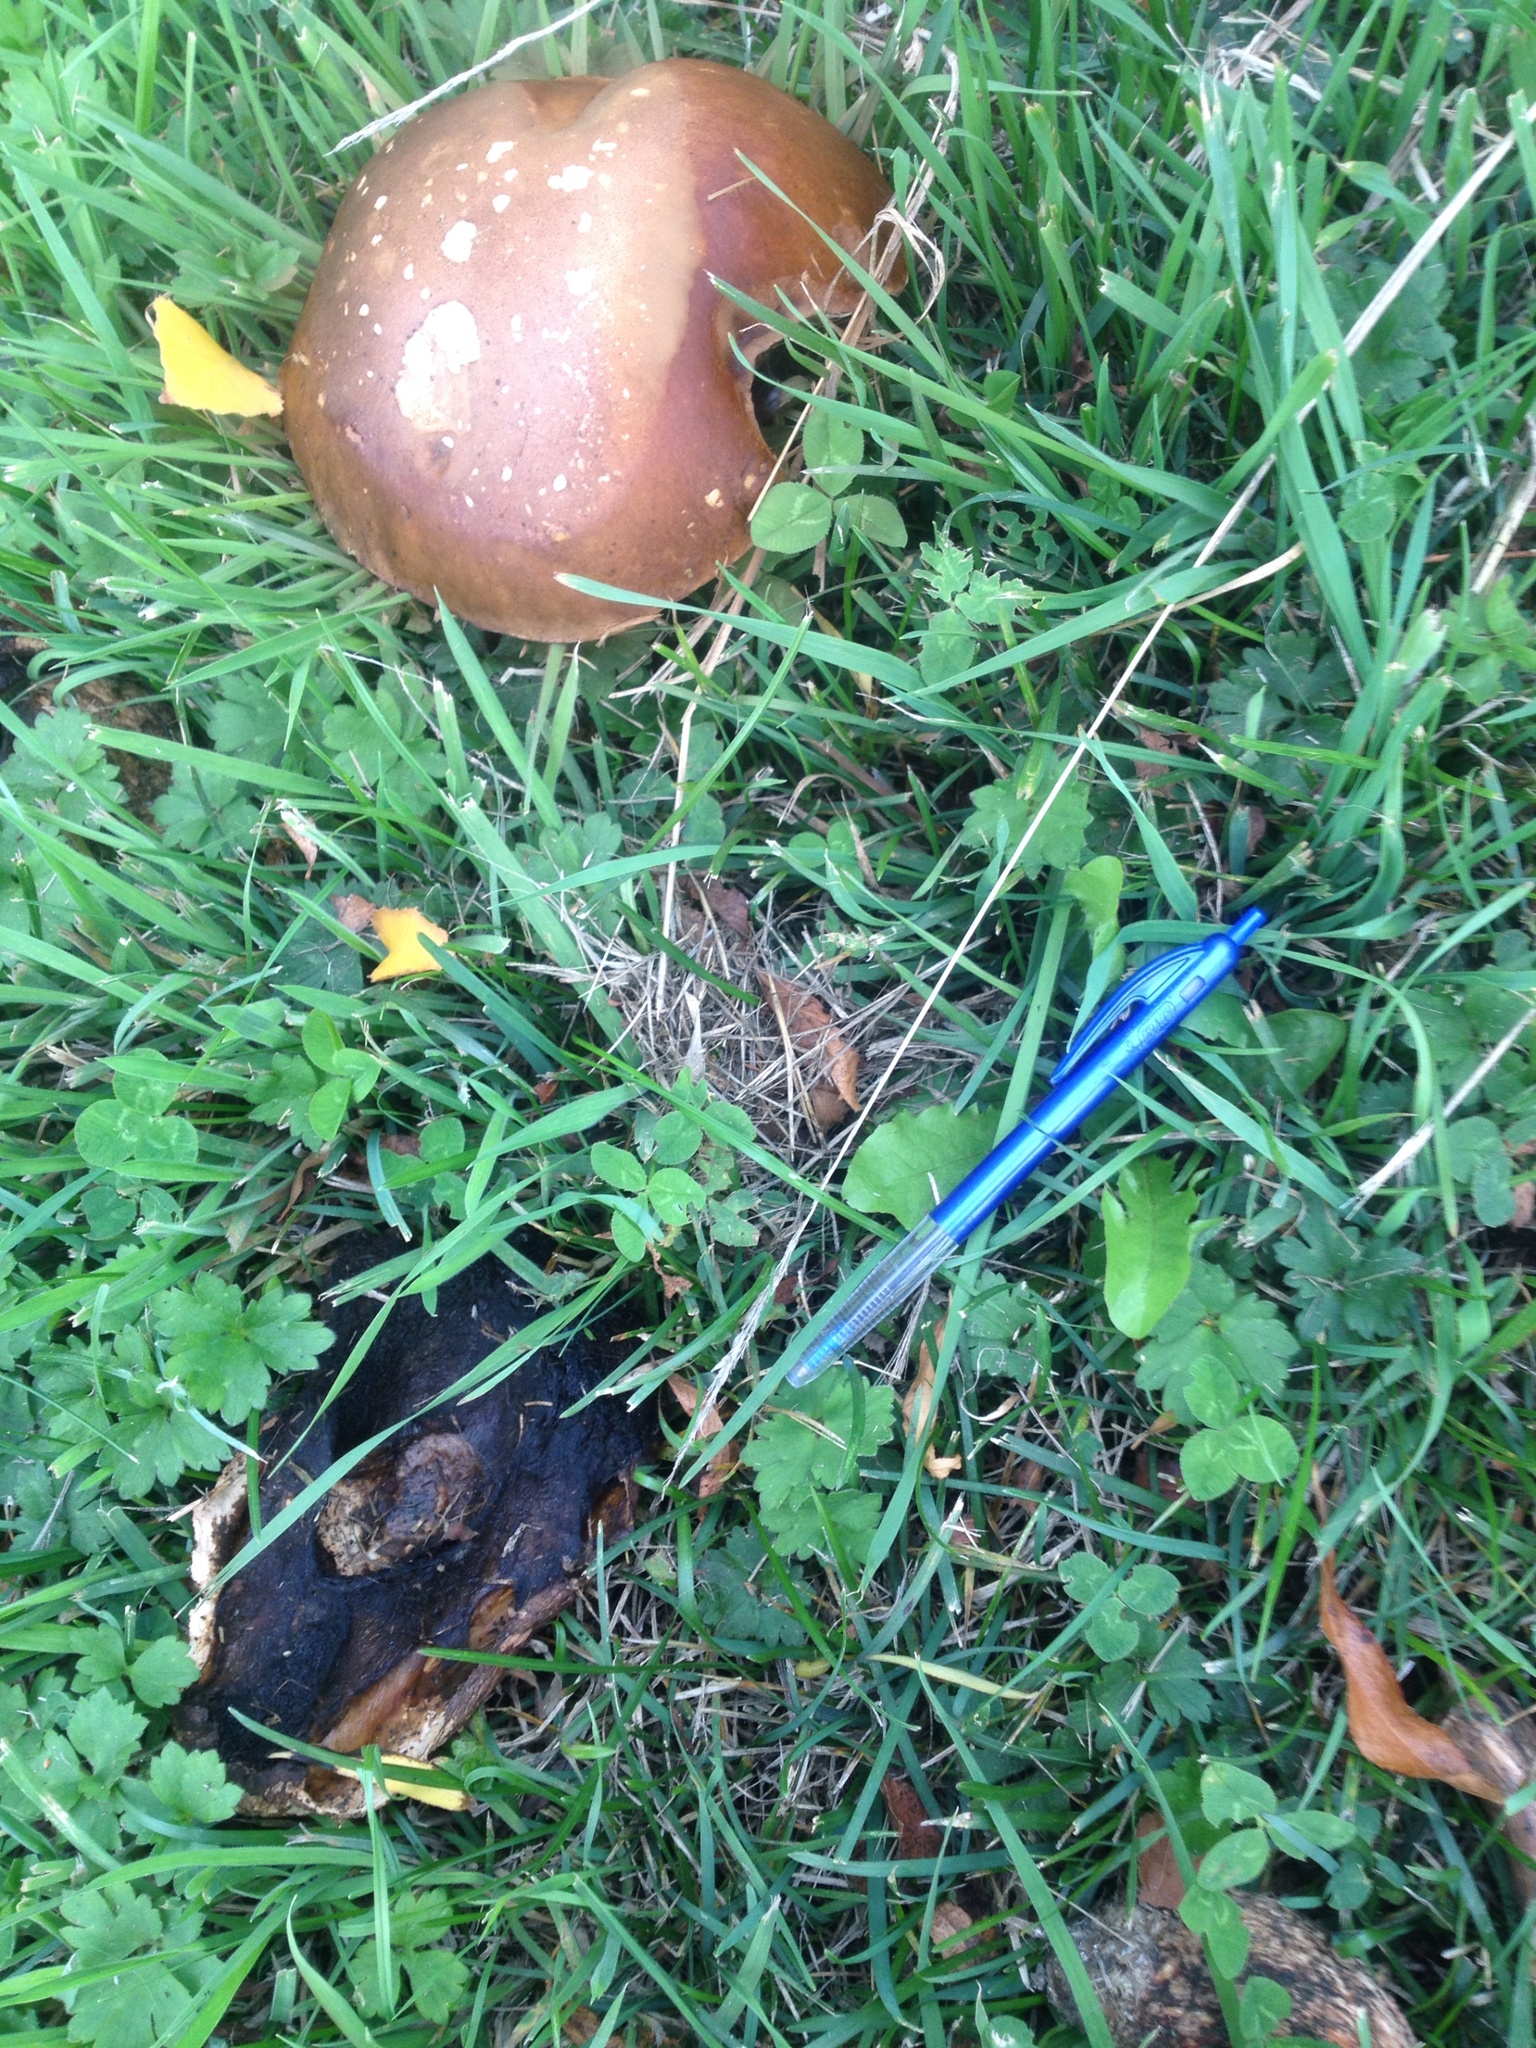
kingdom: Fungi
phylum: Basidiomycota
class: Agaricomycetes
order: Boletales
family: Boletaceae
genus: Leccinum
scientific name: Leccinum scabrum
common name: Blushing bolete
